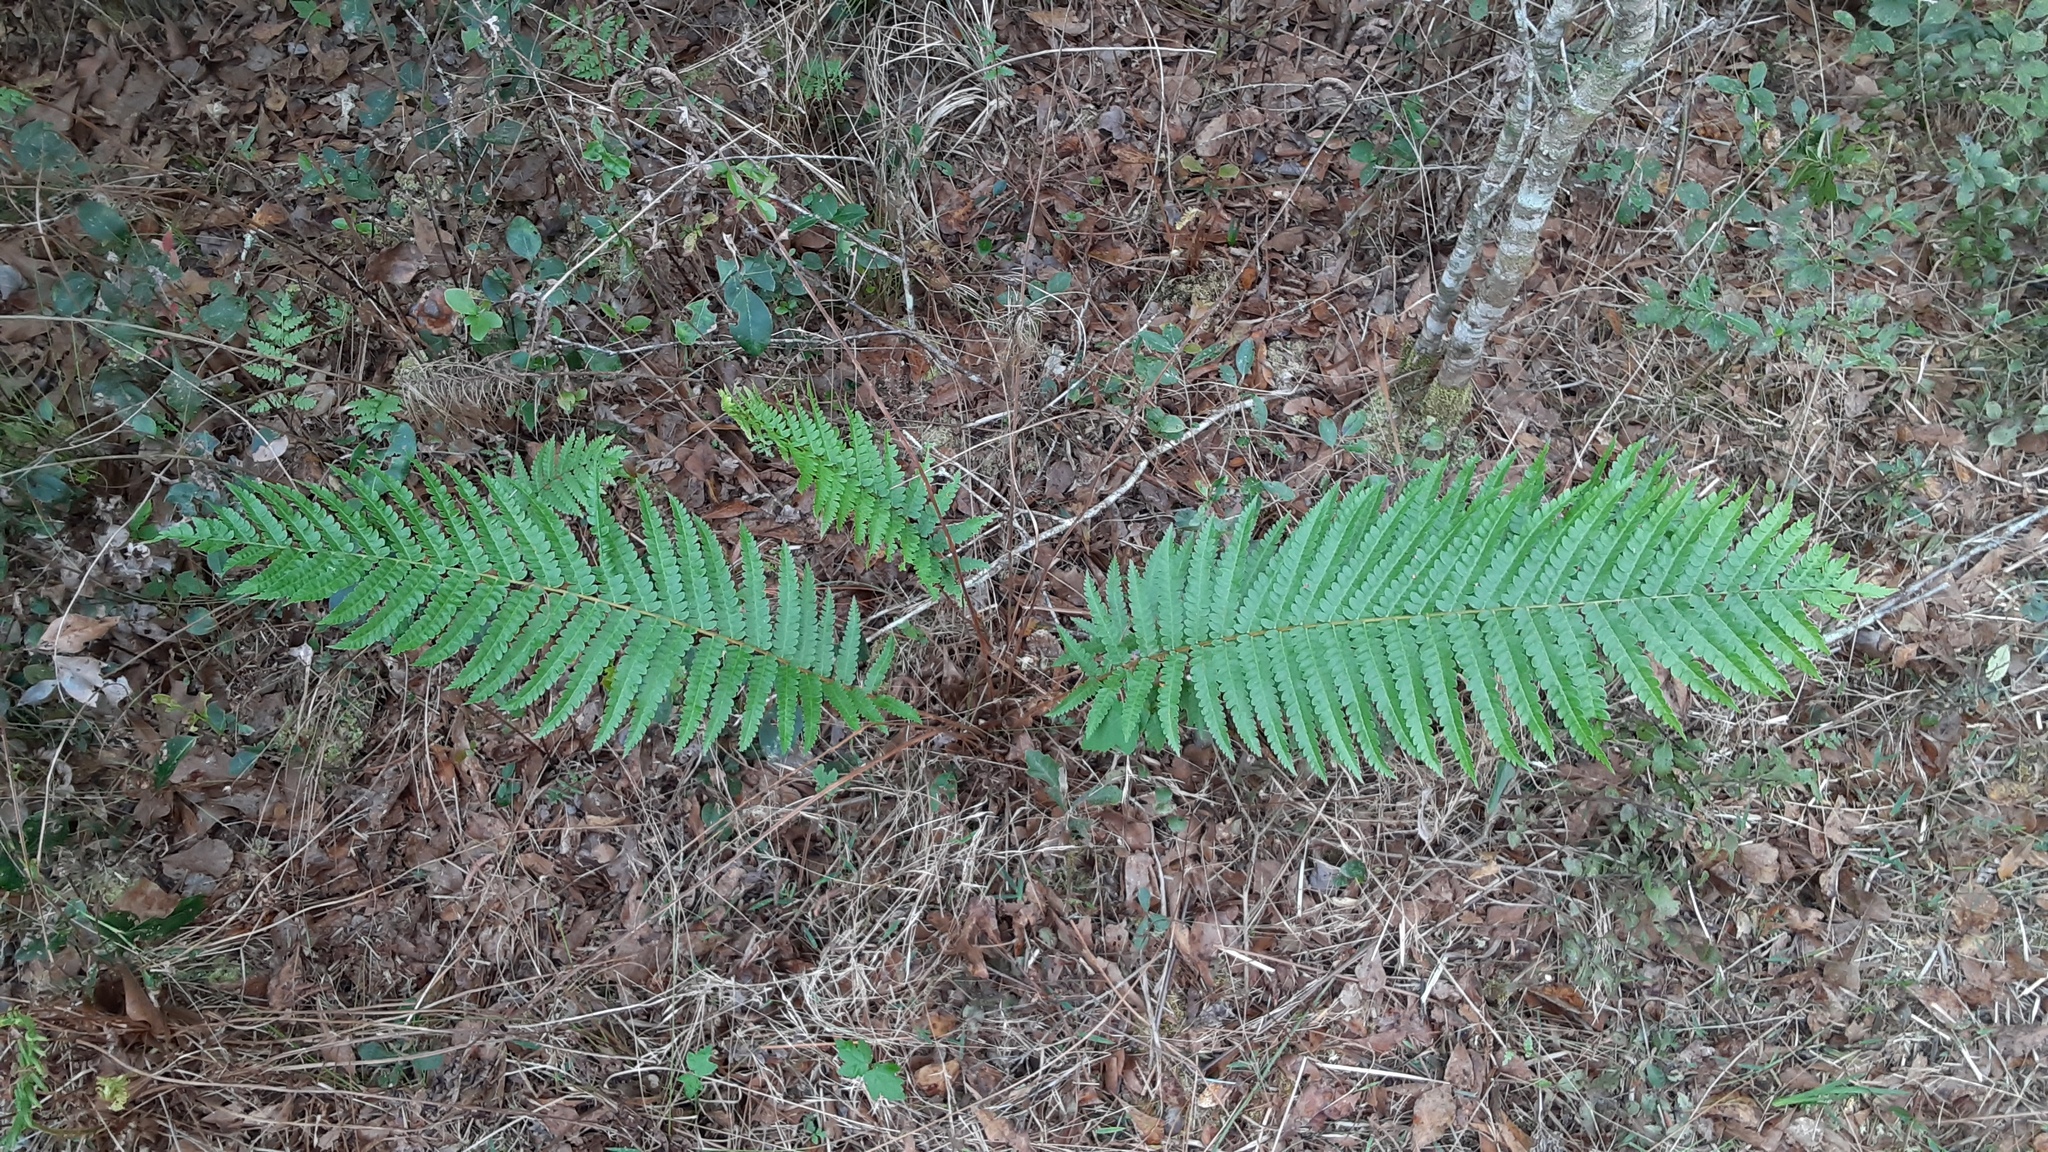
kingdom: Plantae
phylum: Tracheophyta
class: Polypodiopsida
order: Osmundales
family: Osmundaceae
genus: Osmundastrum
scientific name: Osmundastrum cinnamomeum
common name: Cinnamon fern
